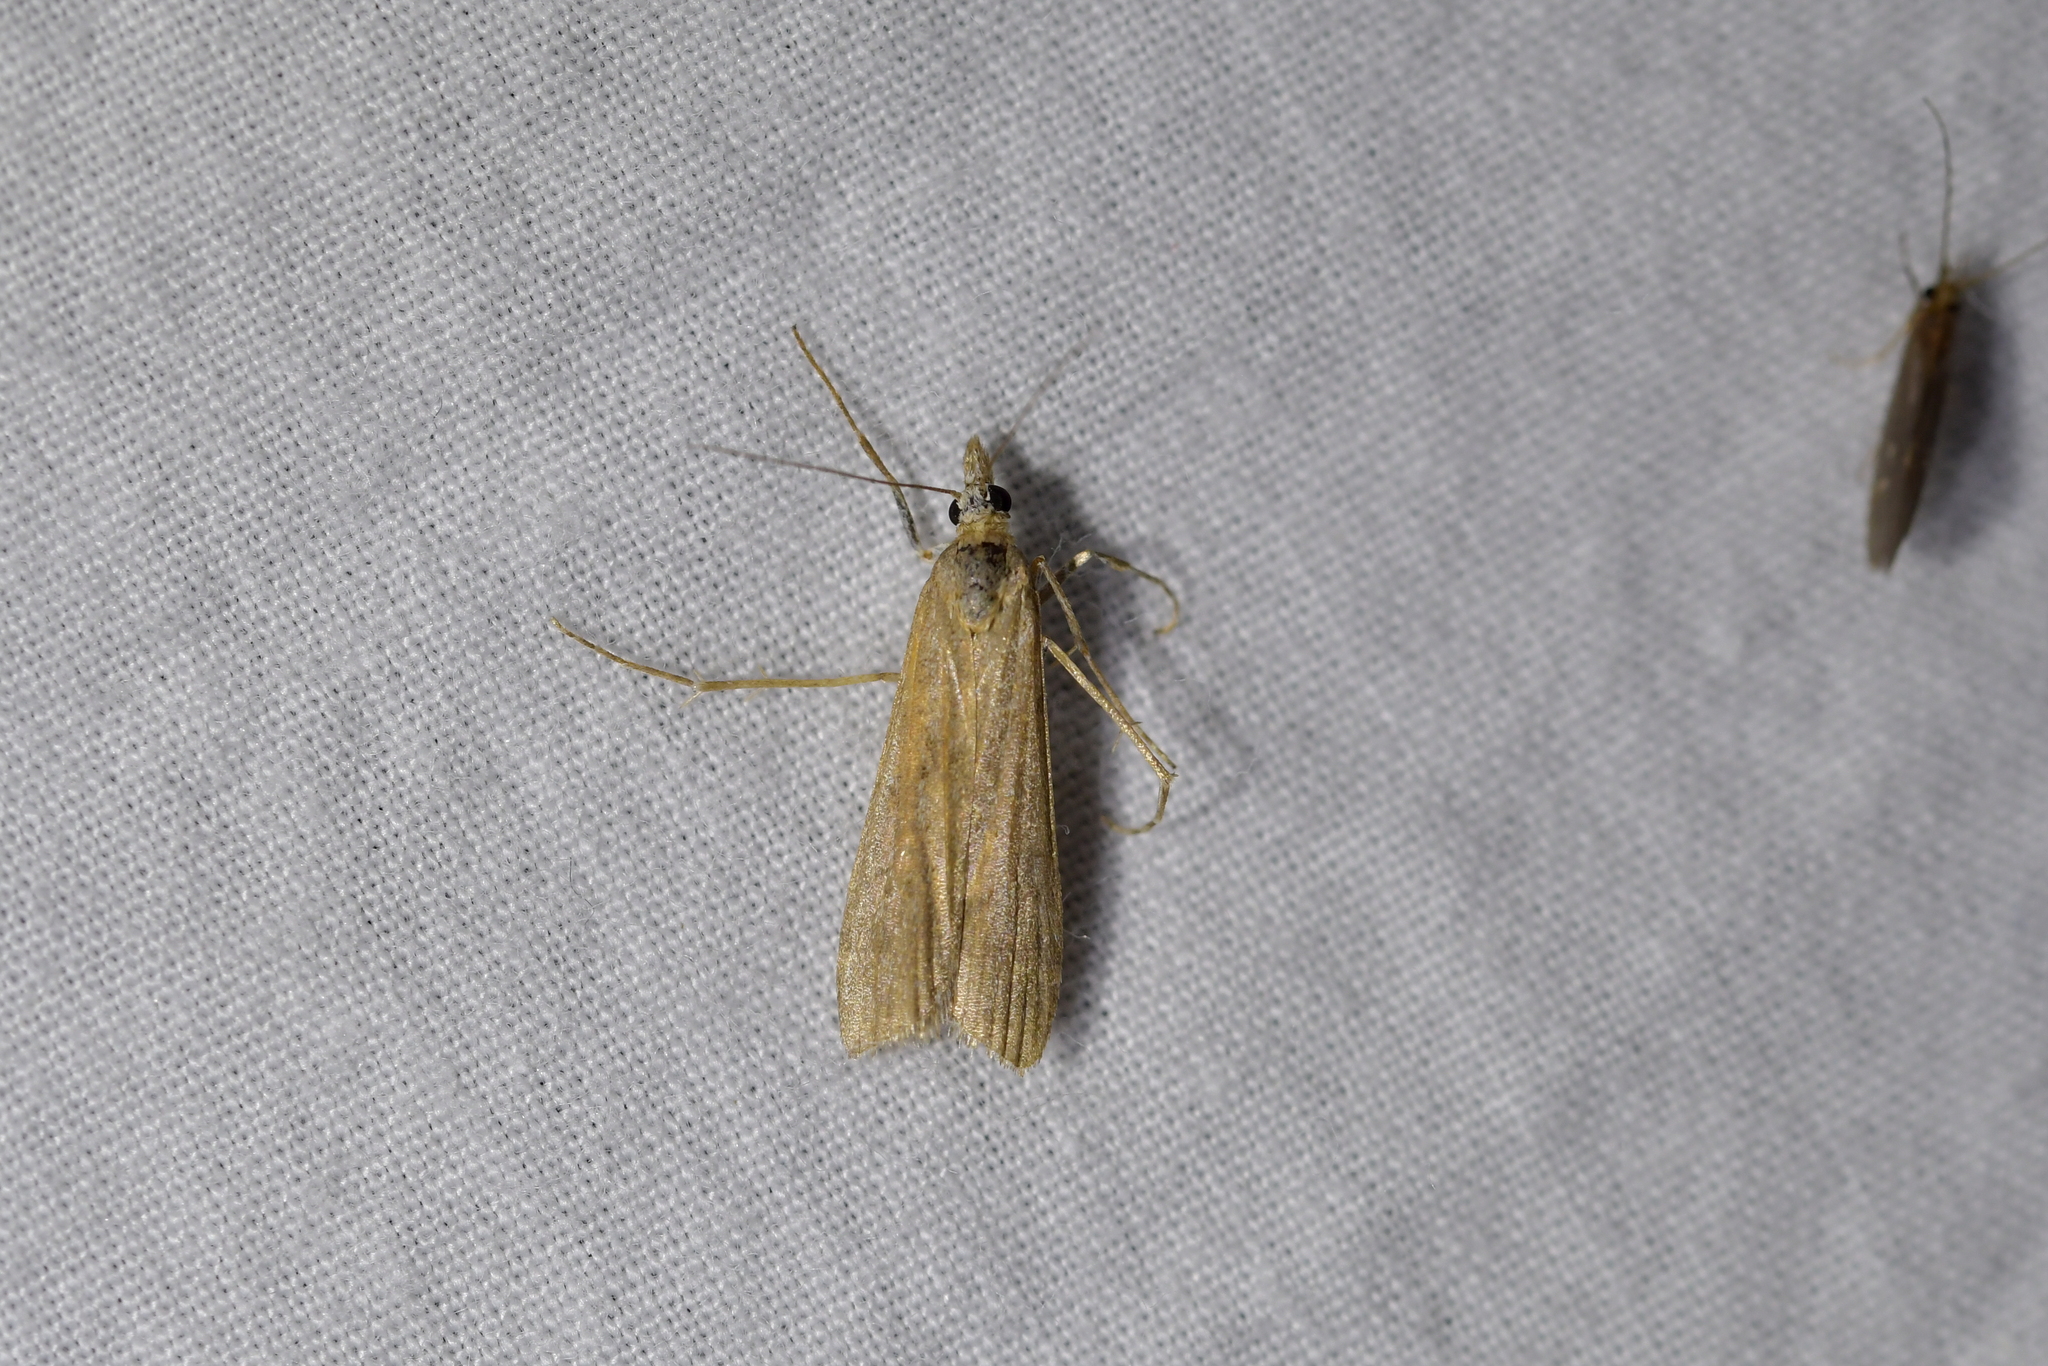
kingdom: Animalia
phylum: Arthropoda
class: Insecta
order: Lepidoptera
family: Crambidae
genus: Eudonia
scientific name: Eudonia leptalea
